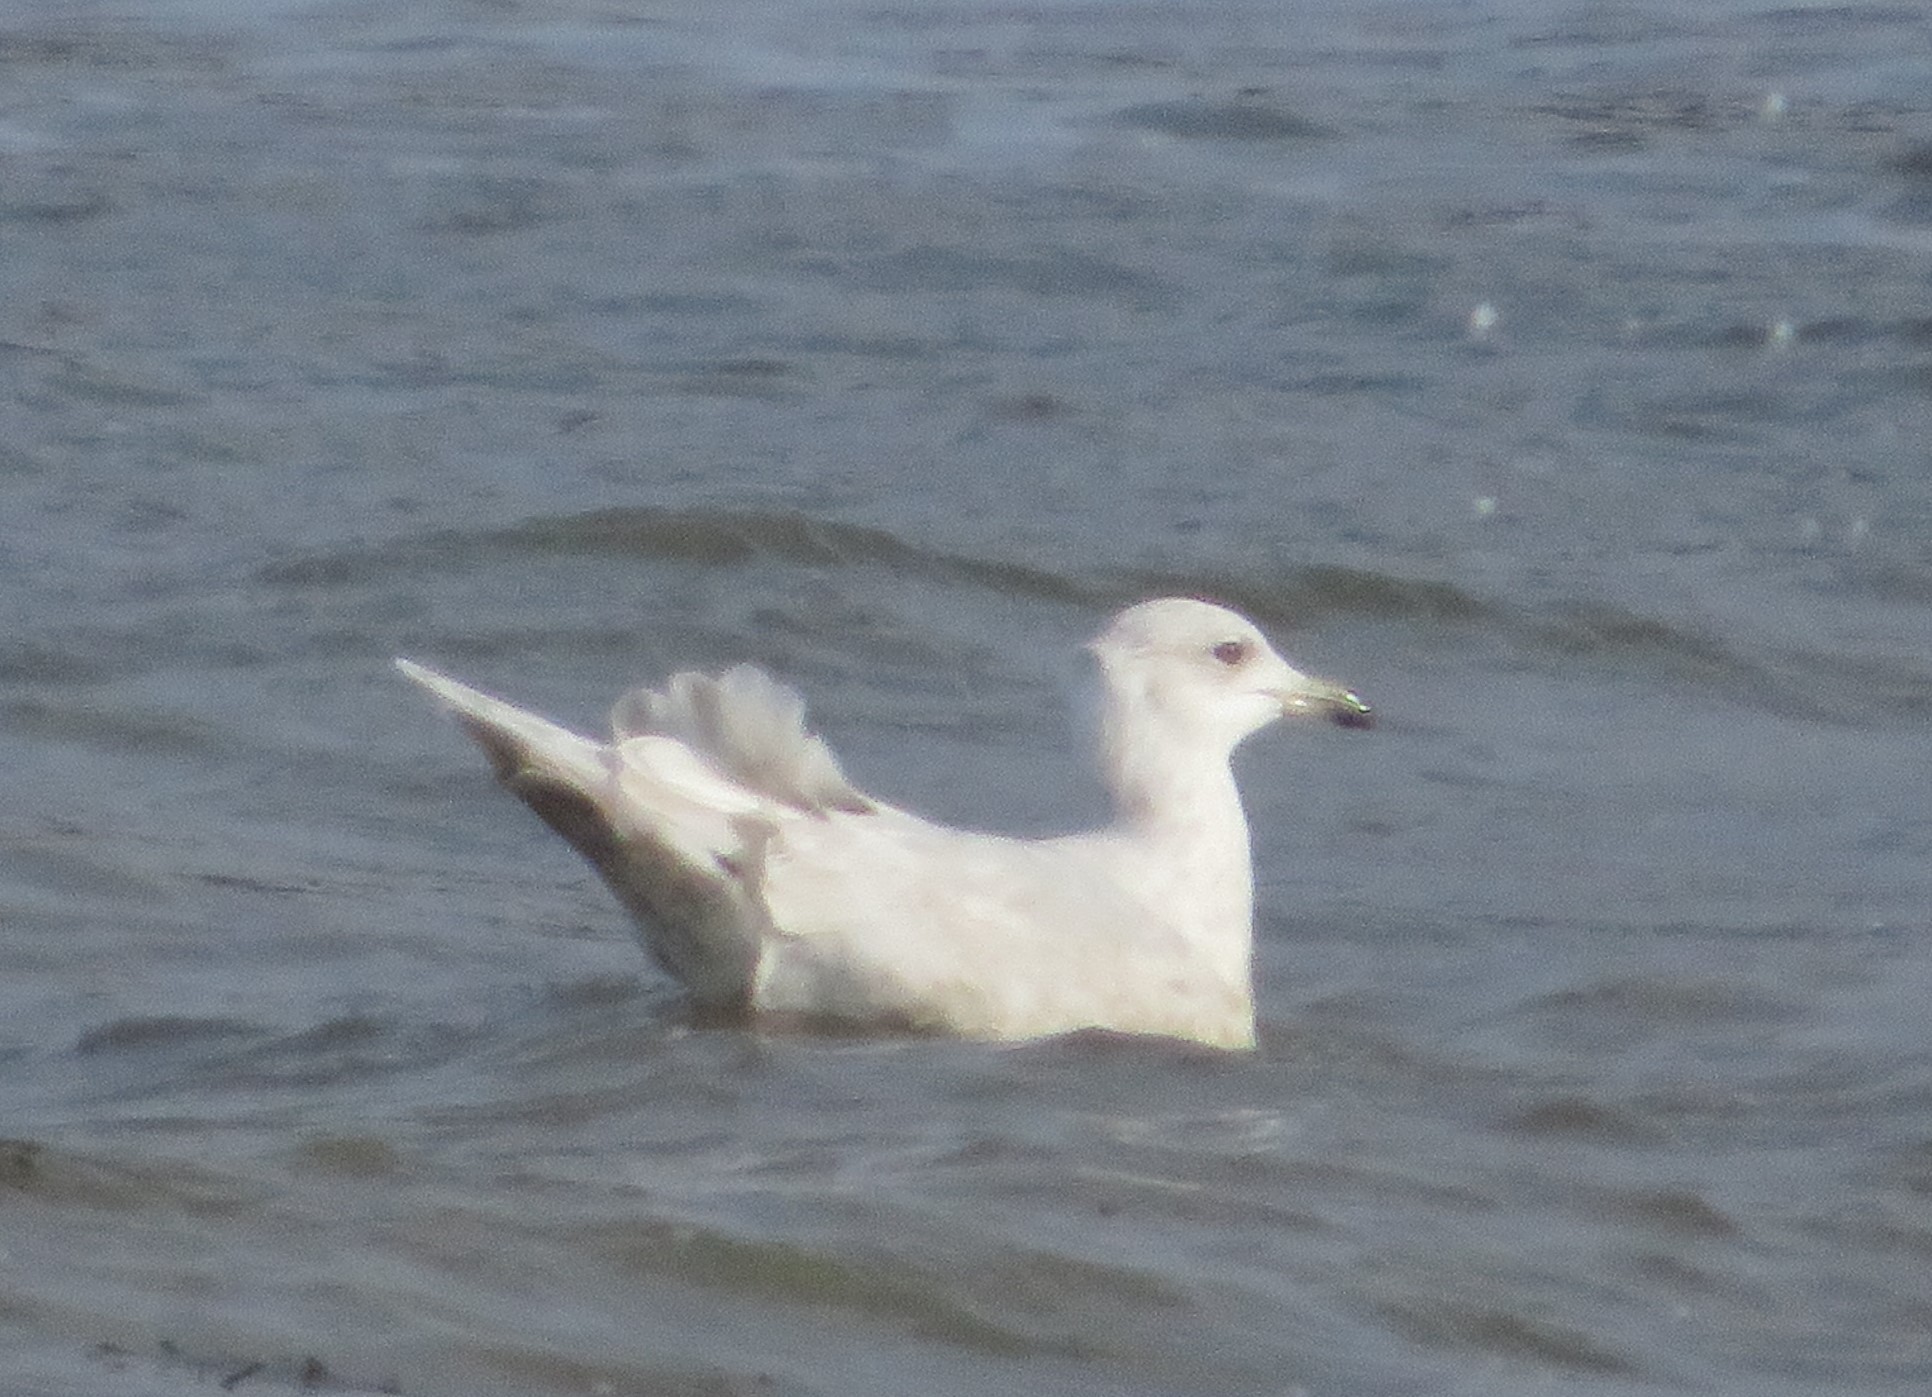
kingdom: Animalia
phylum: Chordata
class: Aves
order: Charadriiformes
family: Laridae
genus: Larus
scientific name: Larus glaucoides
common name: Iceland gull
